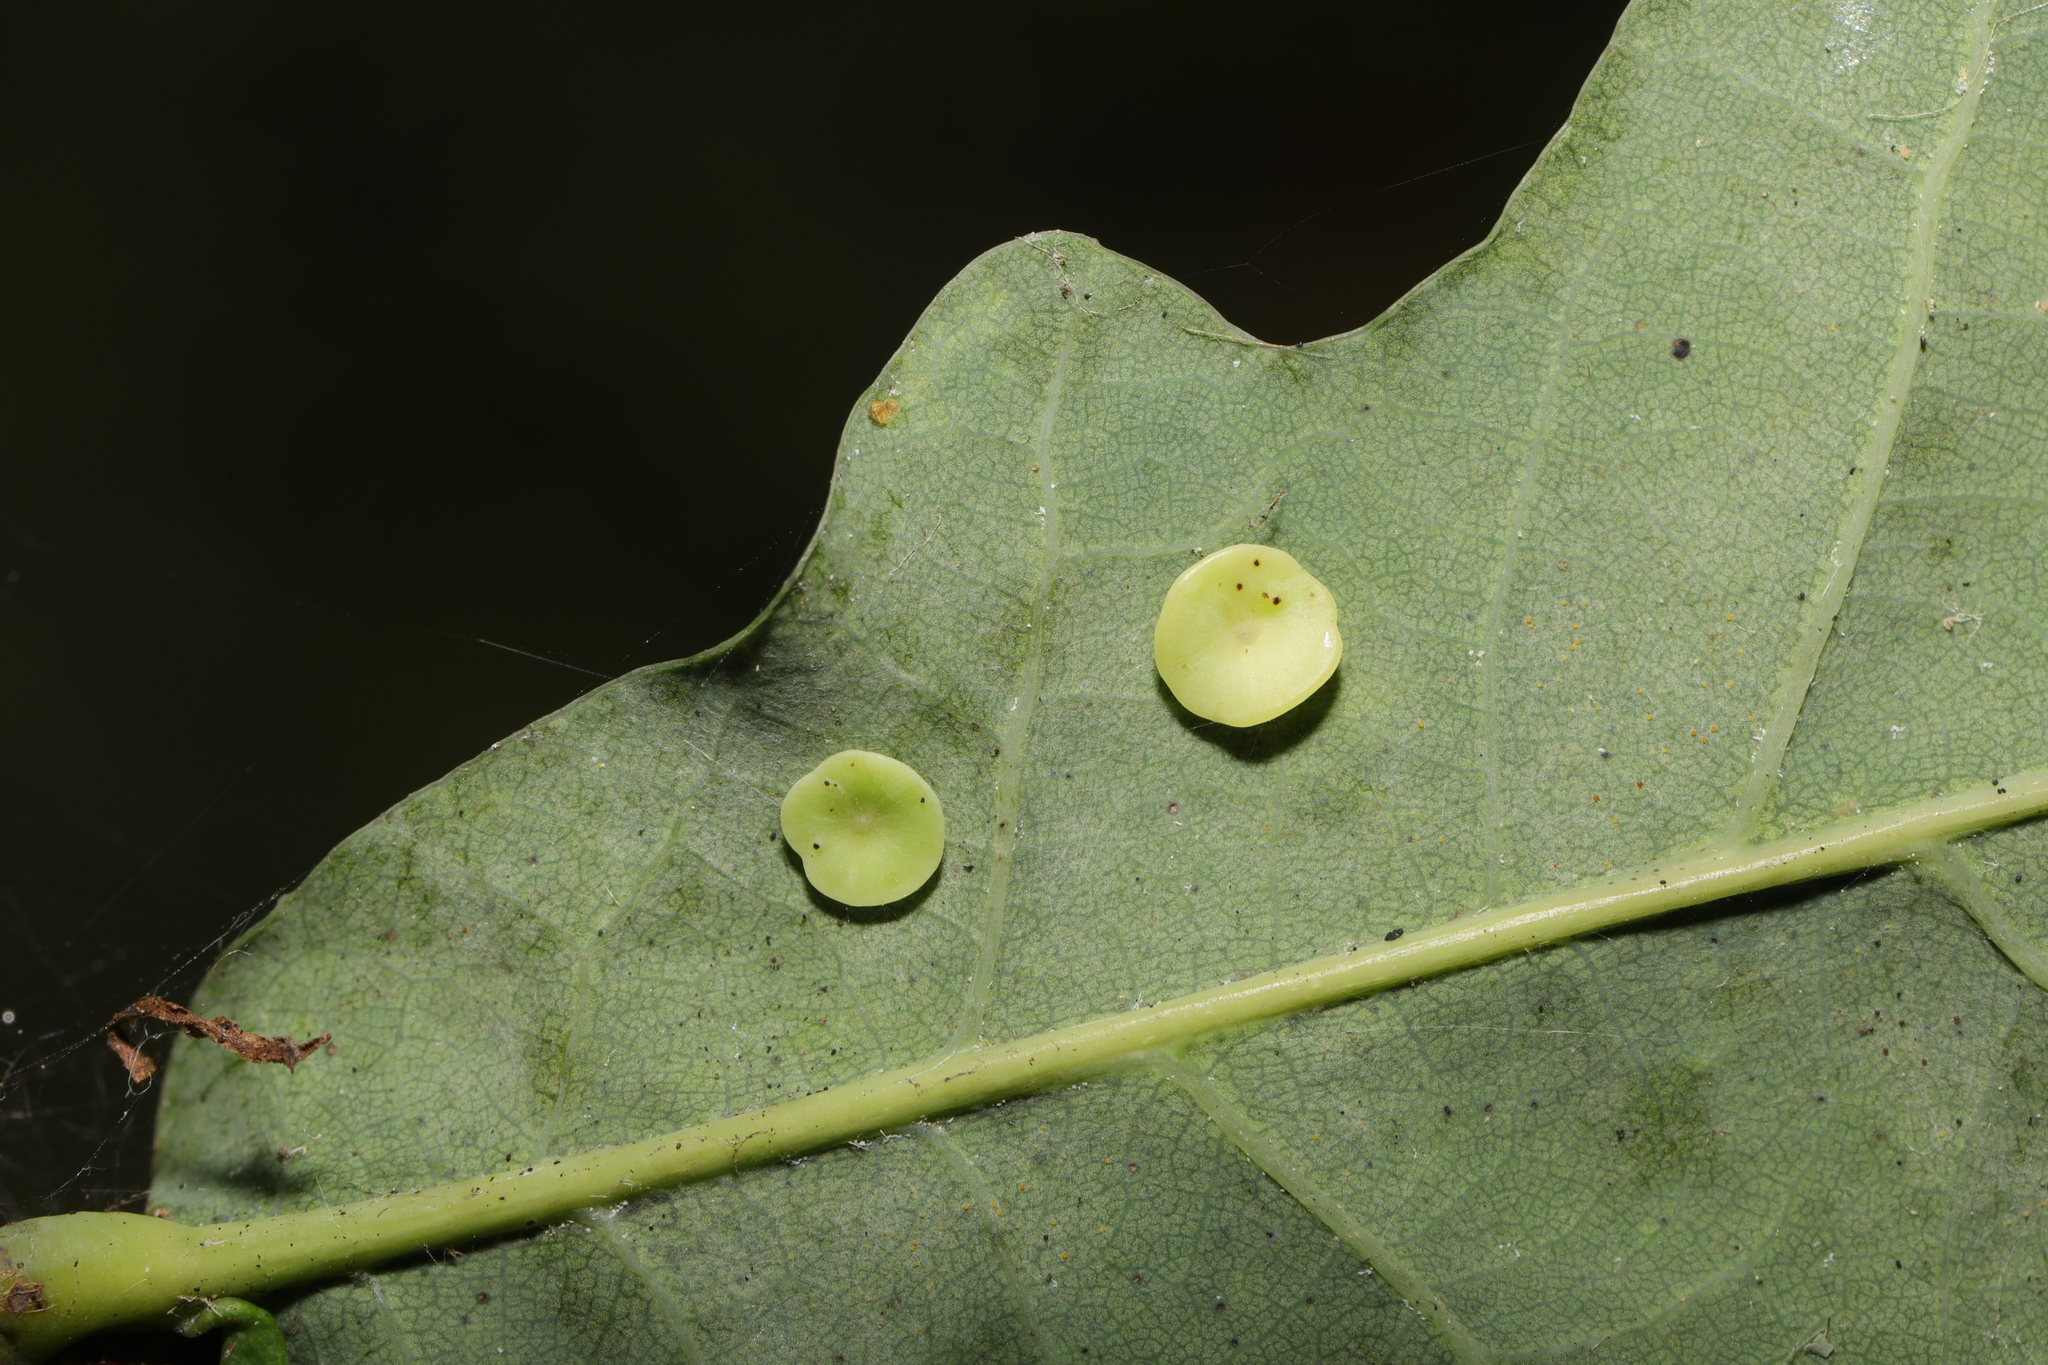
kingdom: Animalia
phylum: Arthropoda
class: Insecta
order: Hymenoptera
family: Cynipidae
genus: Neuroterus
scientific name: Neuroterus albipes
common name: Smooth spangle gall
